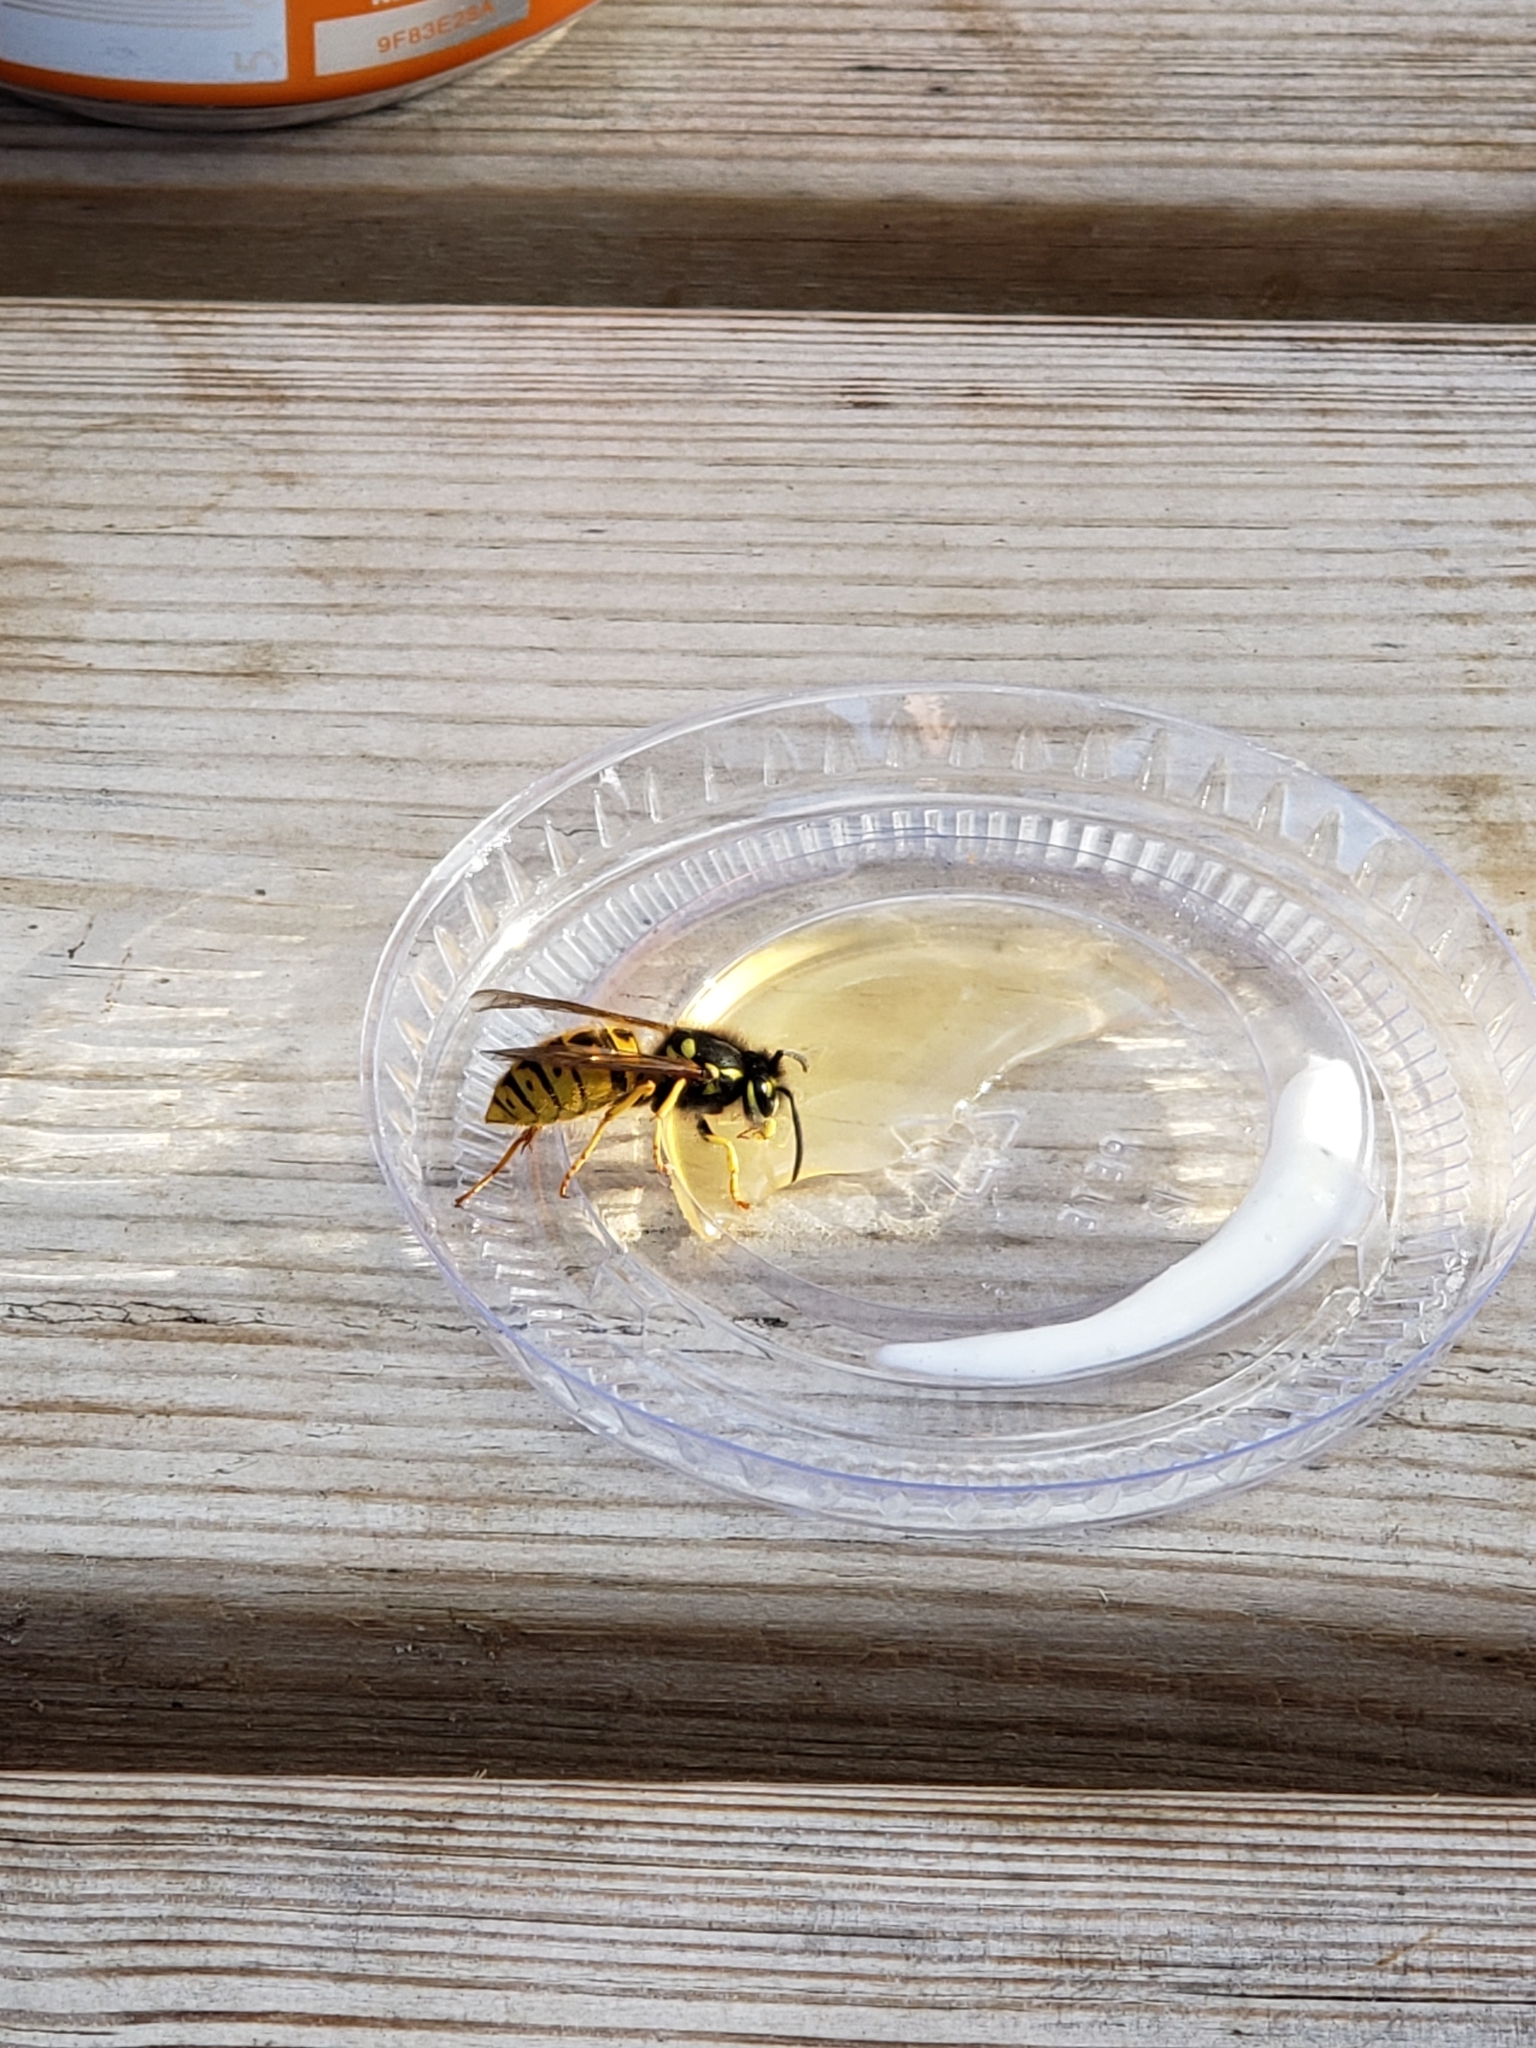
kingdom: Animalia
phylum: Arthropoda
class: Insecta
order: Hymenoptera
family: Vespidae
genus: Vespula
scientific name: Vespula germanica
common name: German wasp
